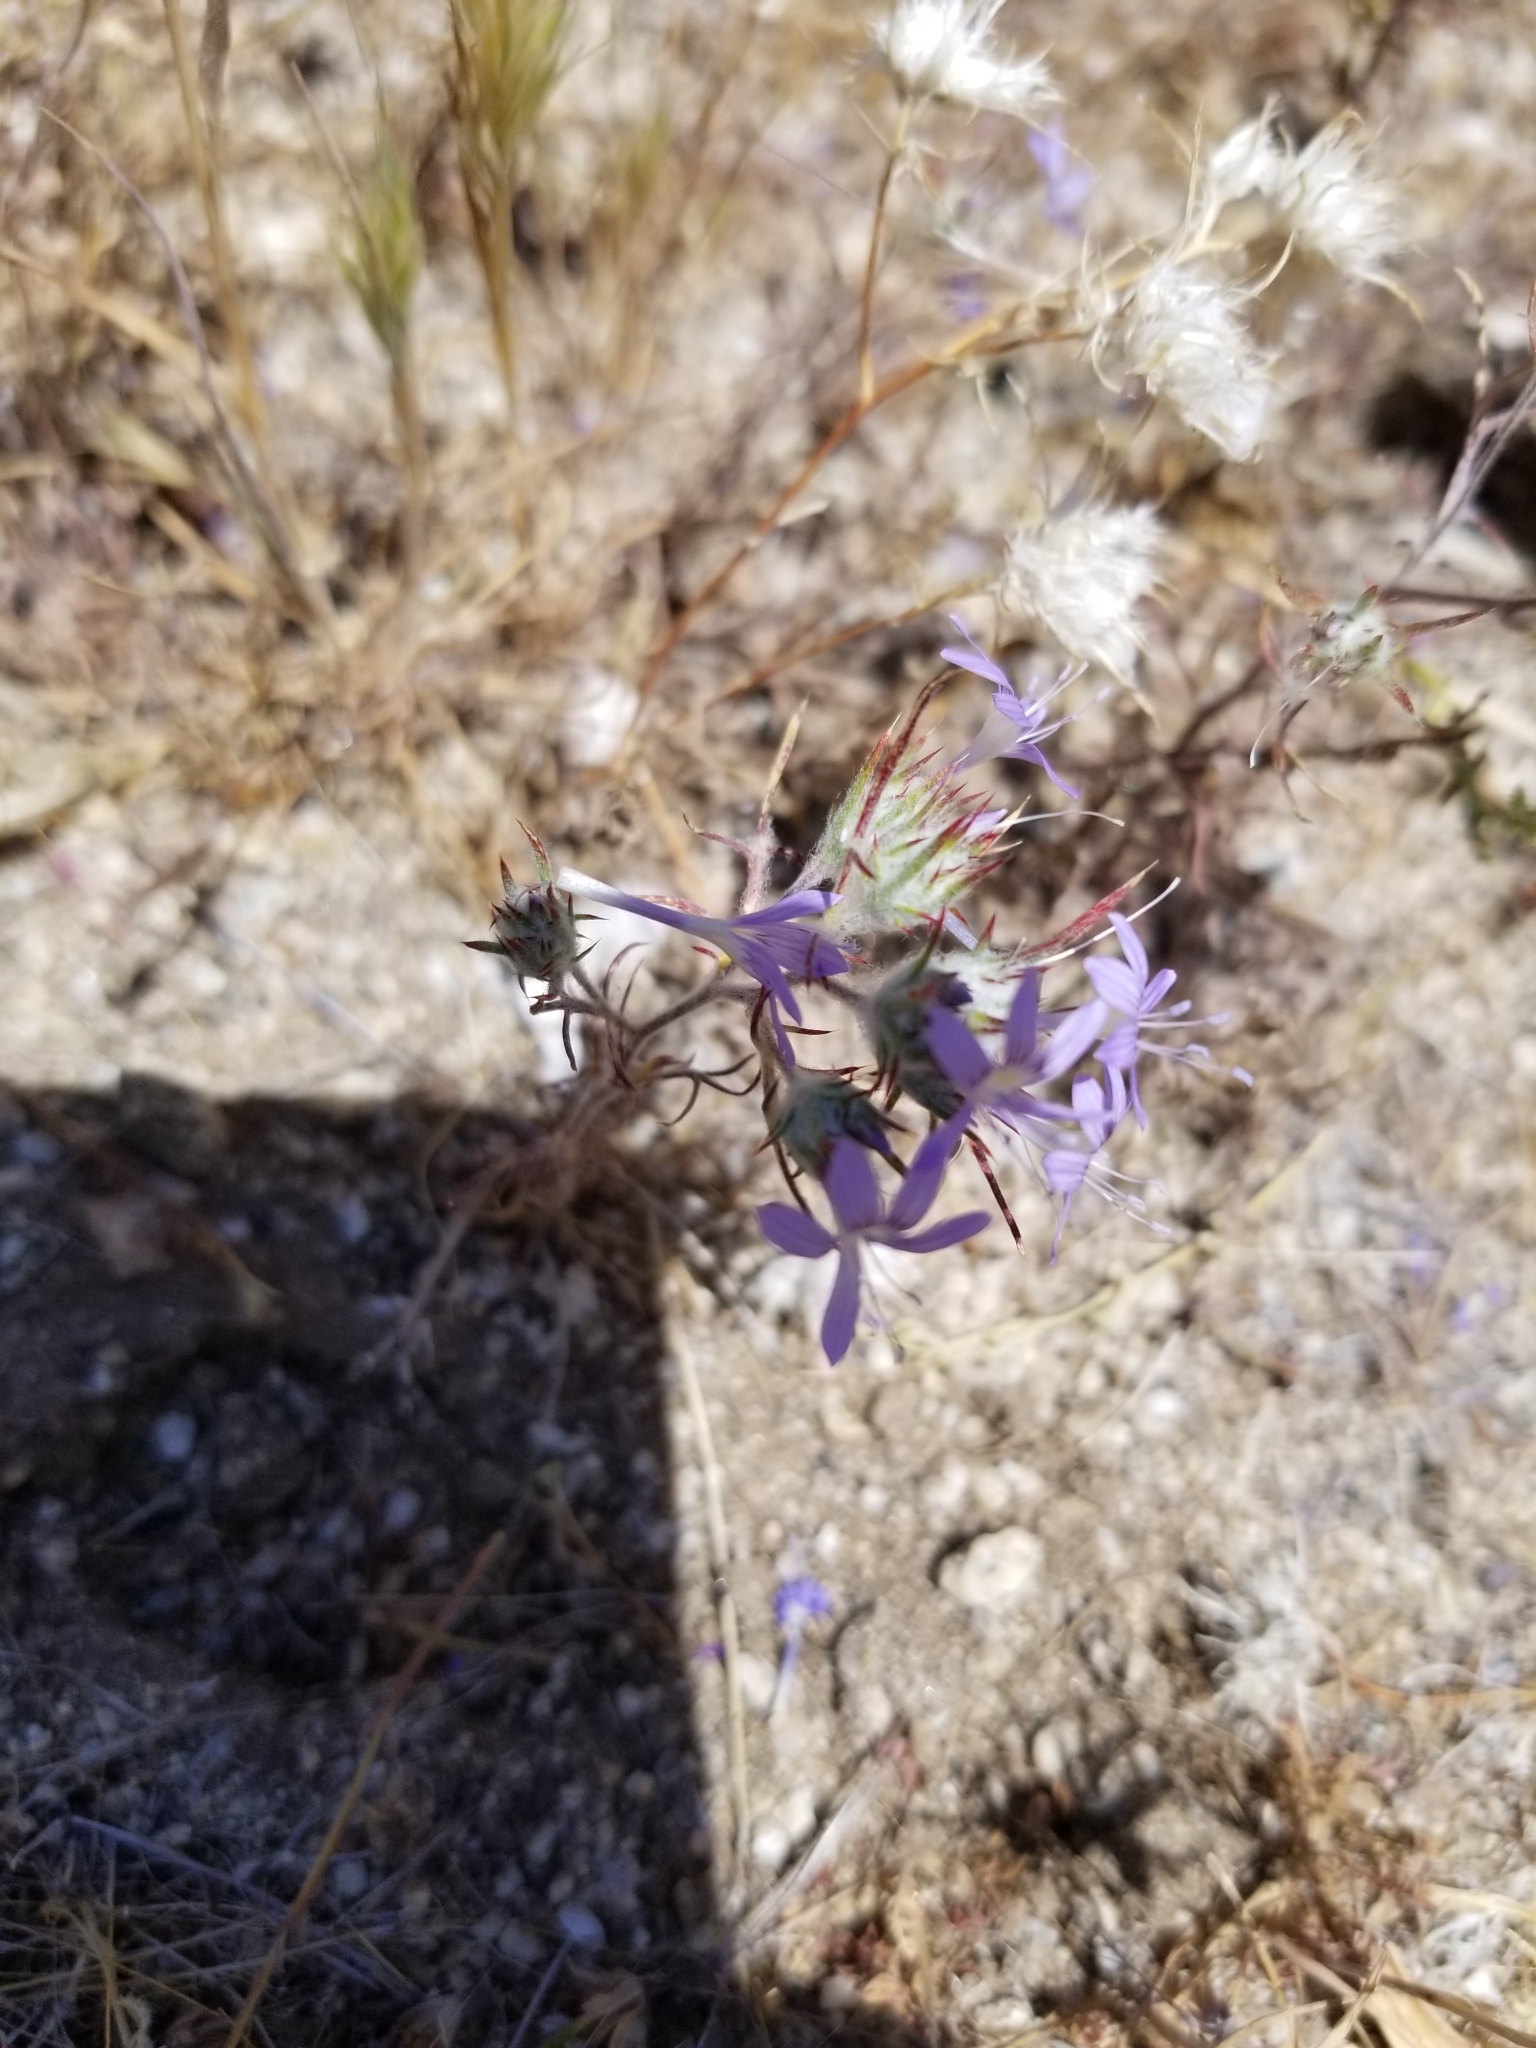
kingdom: Plantae
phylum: Tracheophyta
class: Magnoliopsida
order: Ericales
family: Polemoniaceae
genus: Eriastrum
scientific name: Eriastrum eremicum
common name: Desert eriastrum
